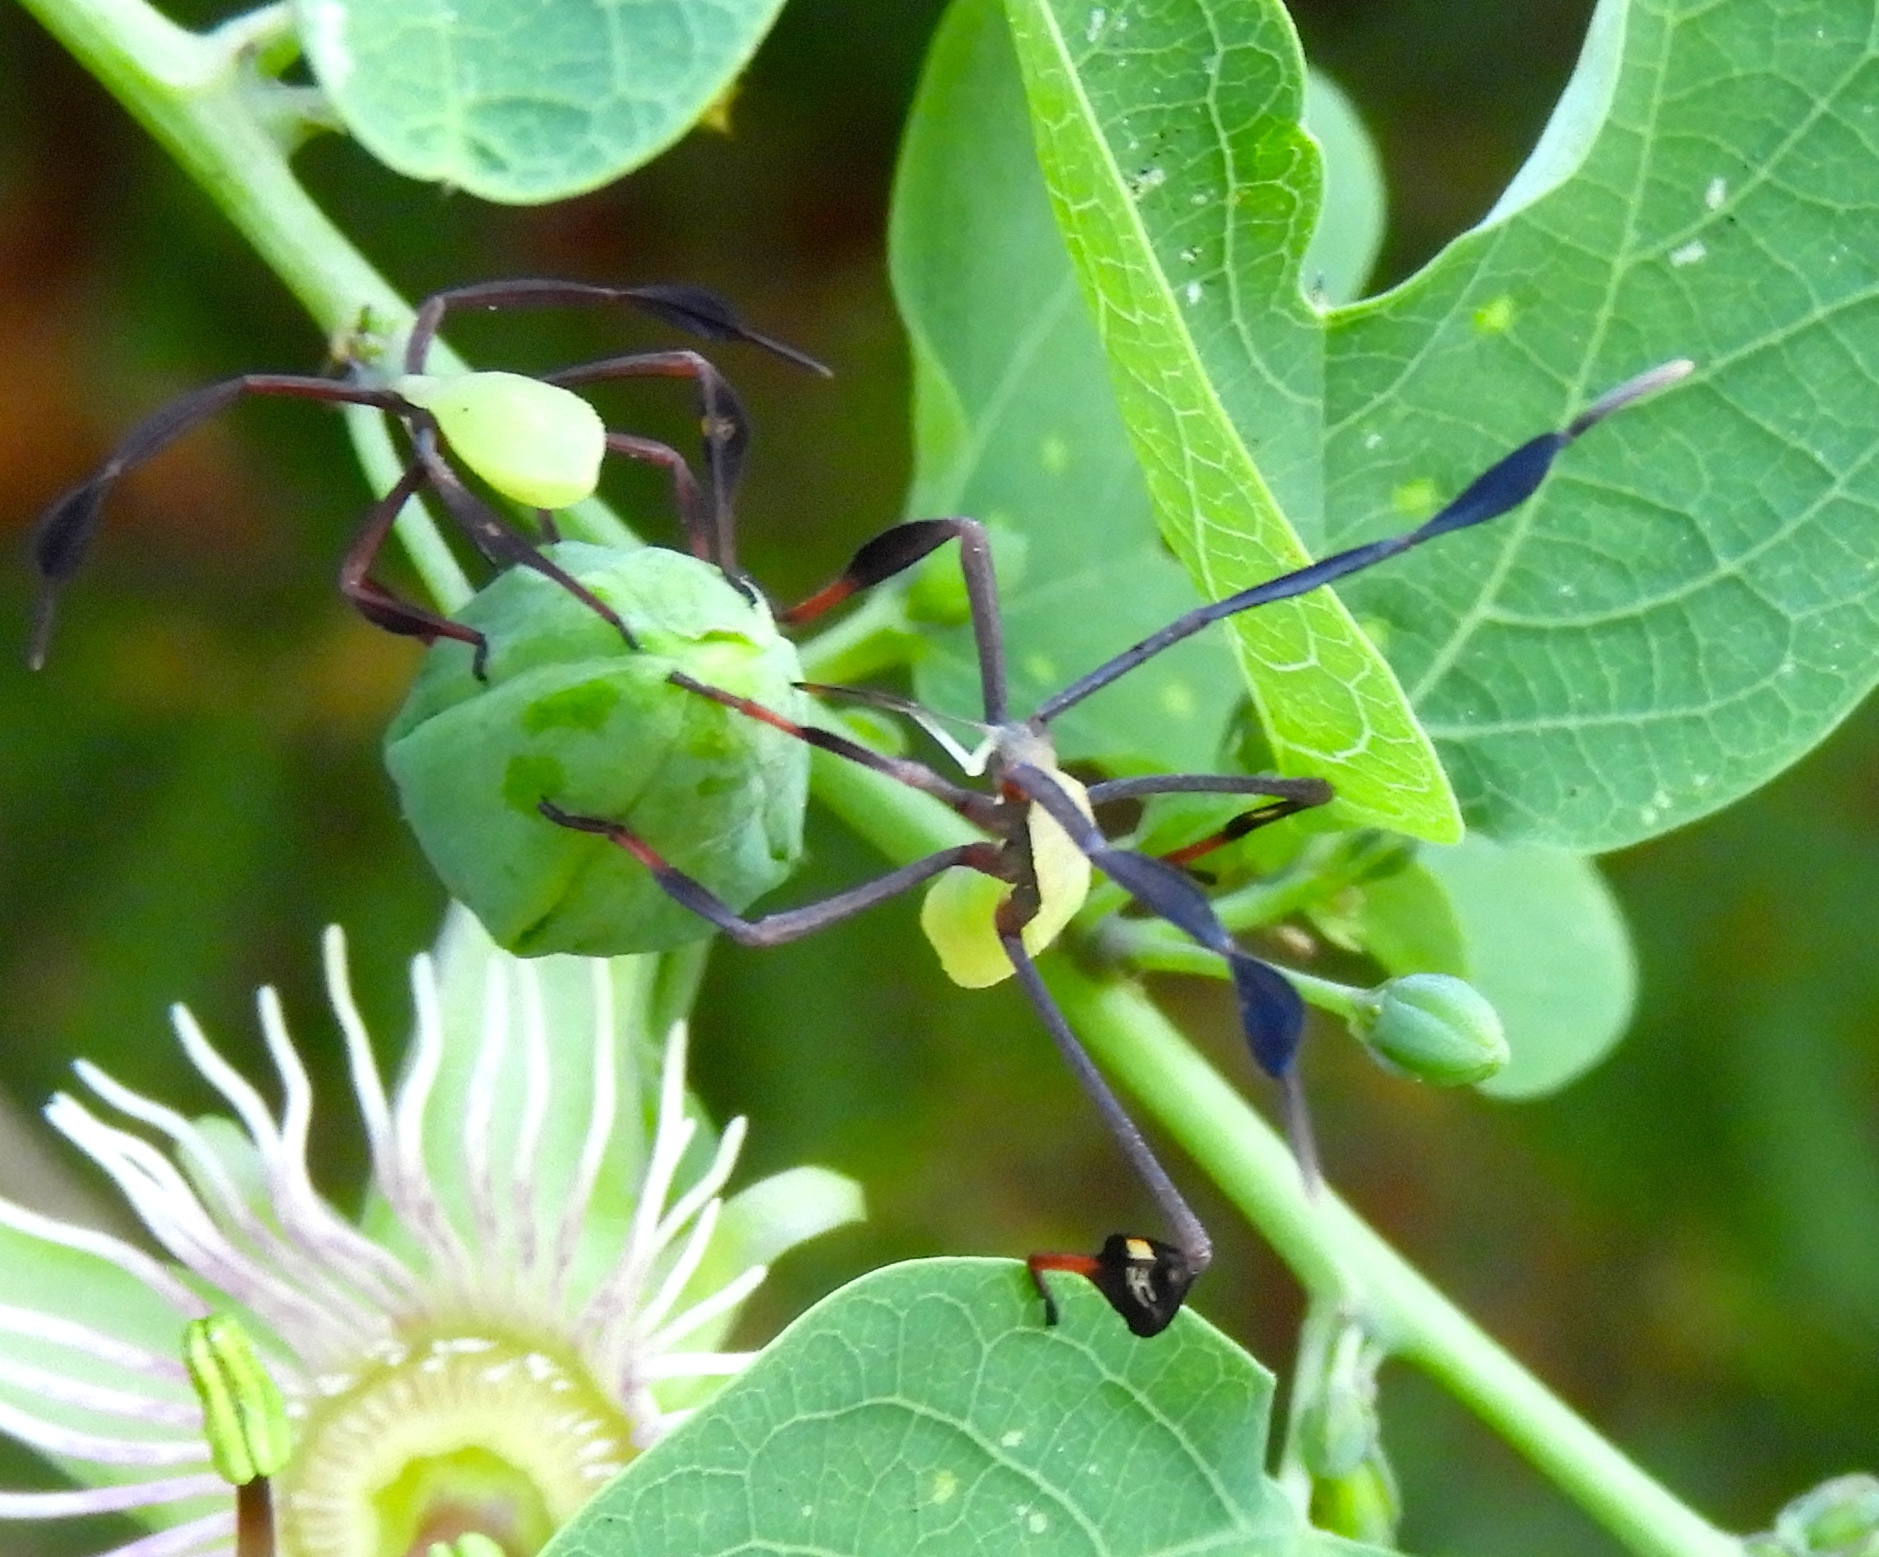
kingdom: Animalia
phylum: Arthropoda
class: Insecta
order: Hemiptera
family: Coreidae
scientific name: Coreidae
